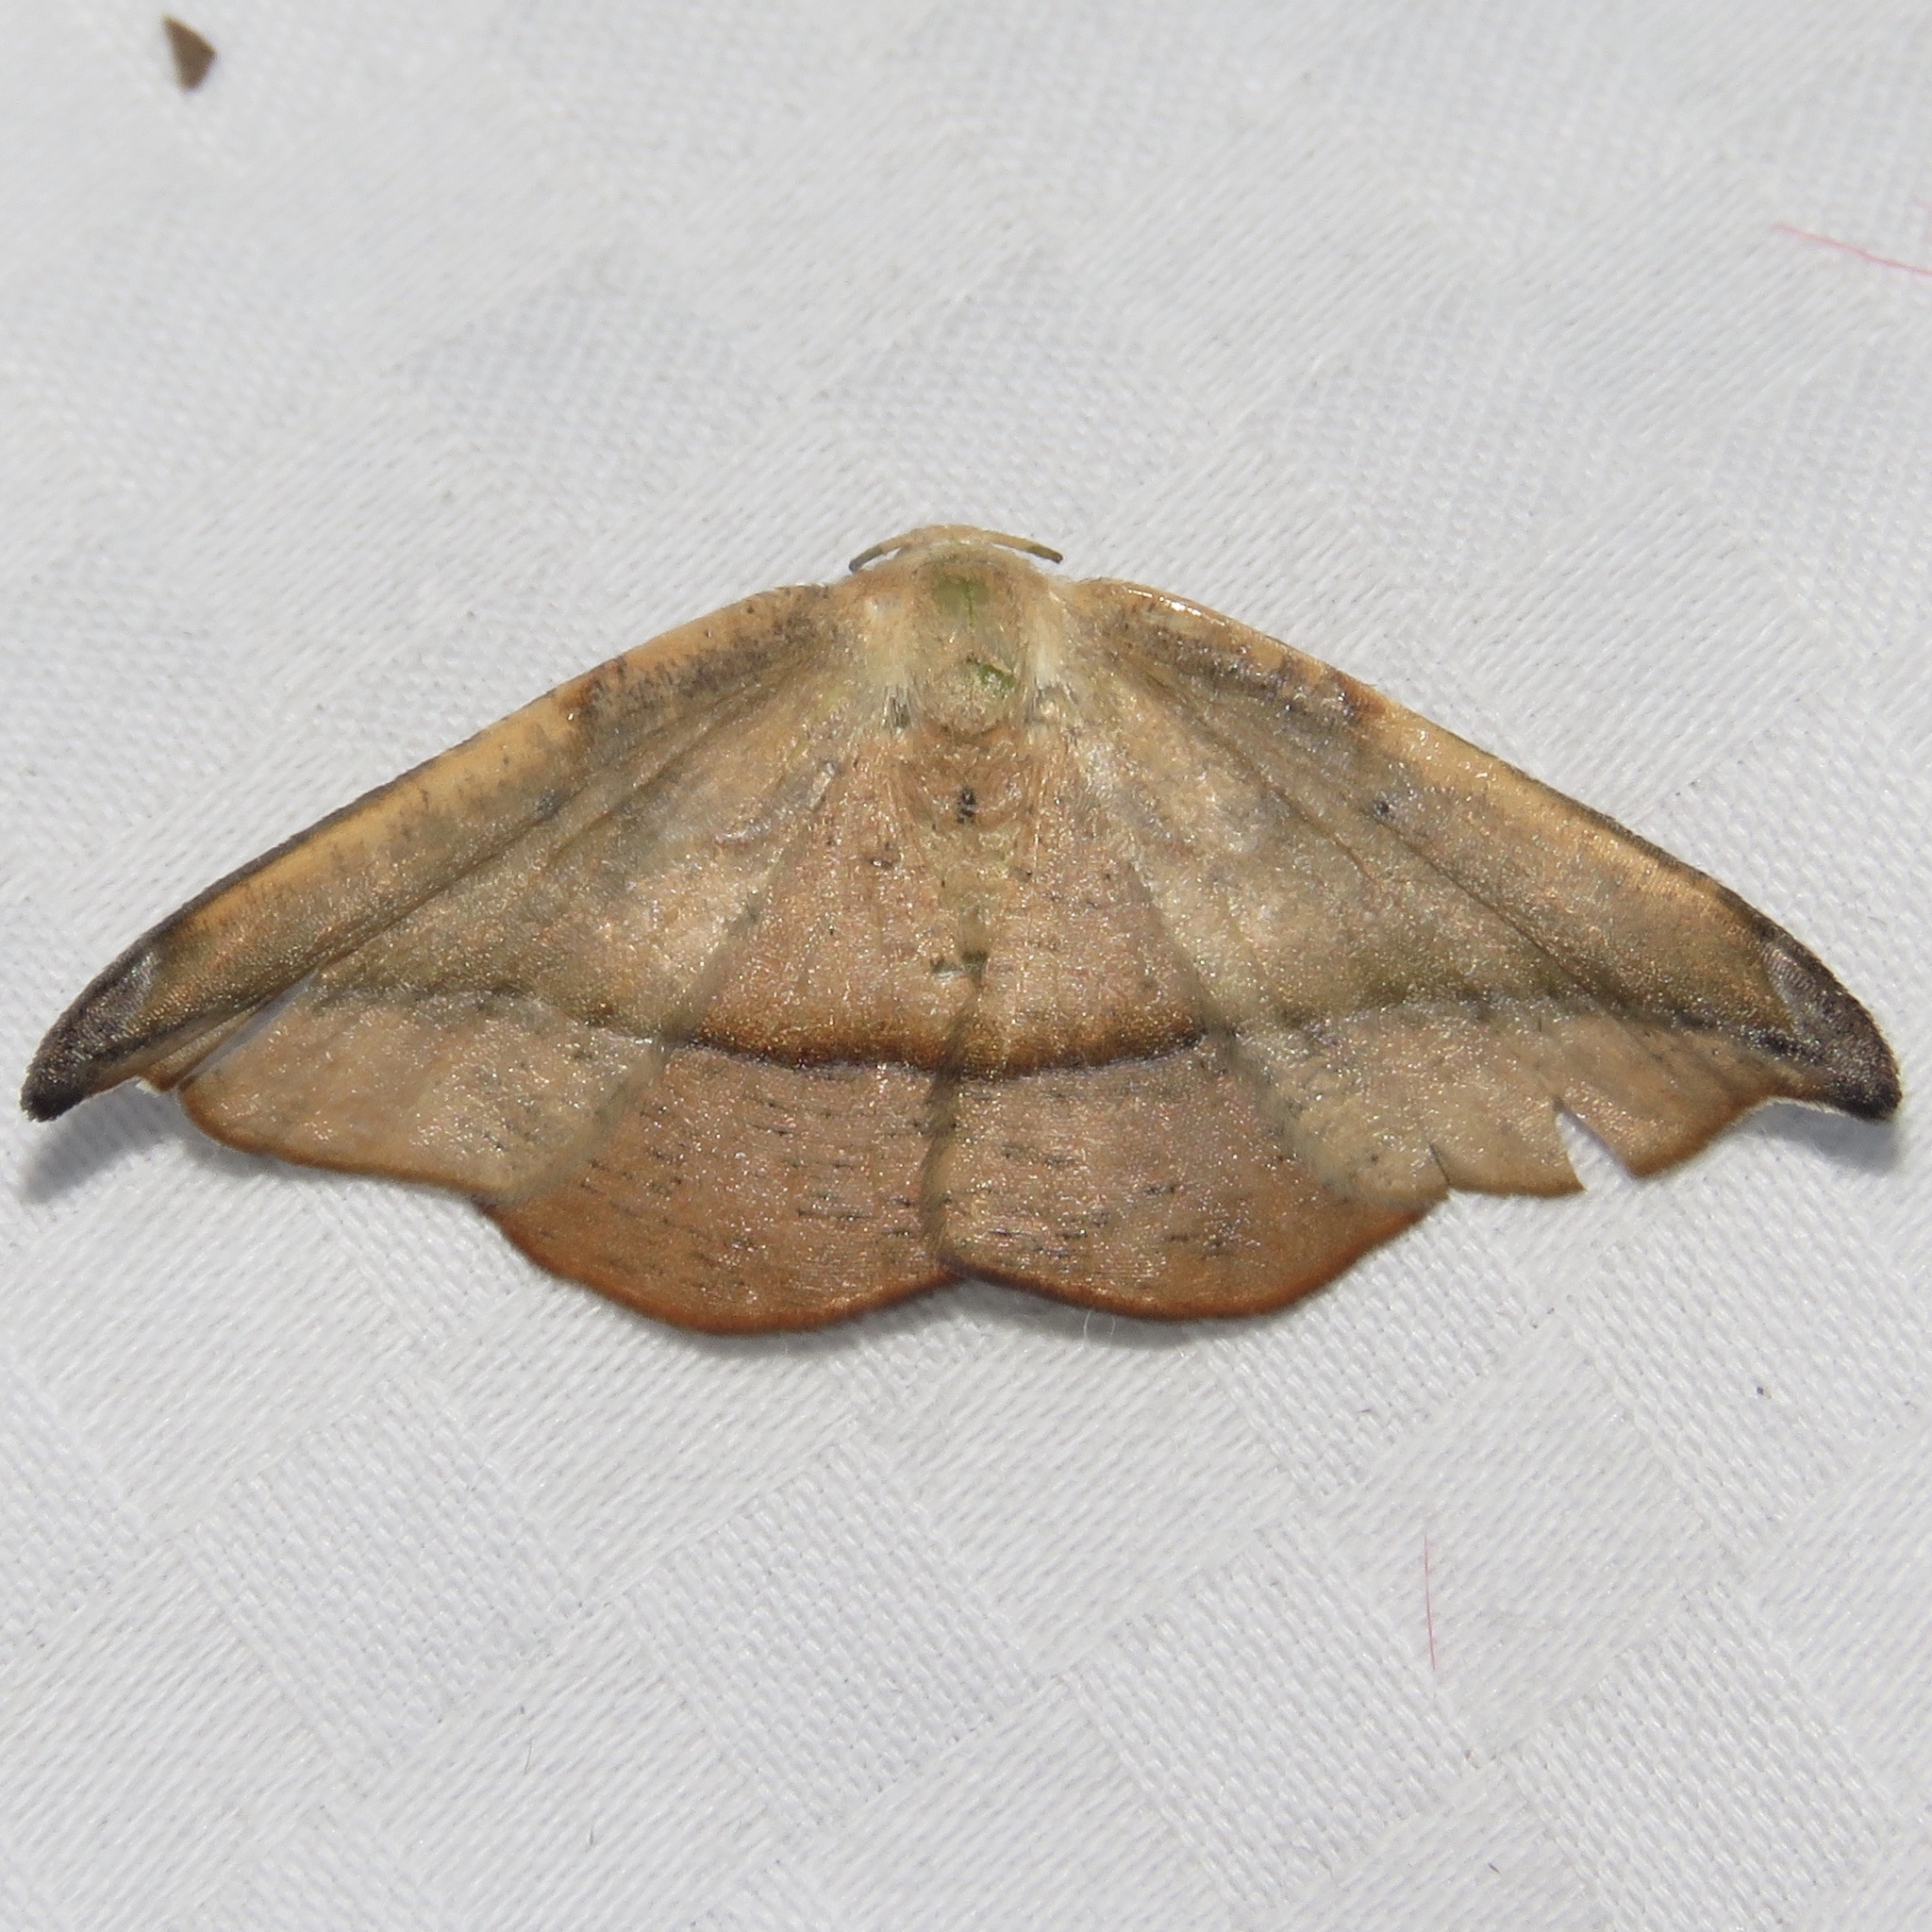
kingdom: Animalia
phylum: Arthropoda
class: Insecta
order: Lepidoptera
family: Geometridae
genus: Patalene
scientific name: Patalene olyzonaria
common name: Juniper geometer moth
